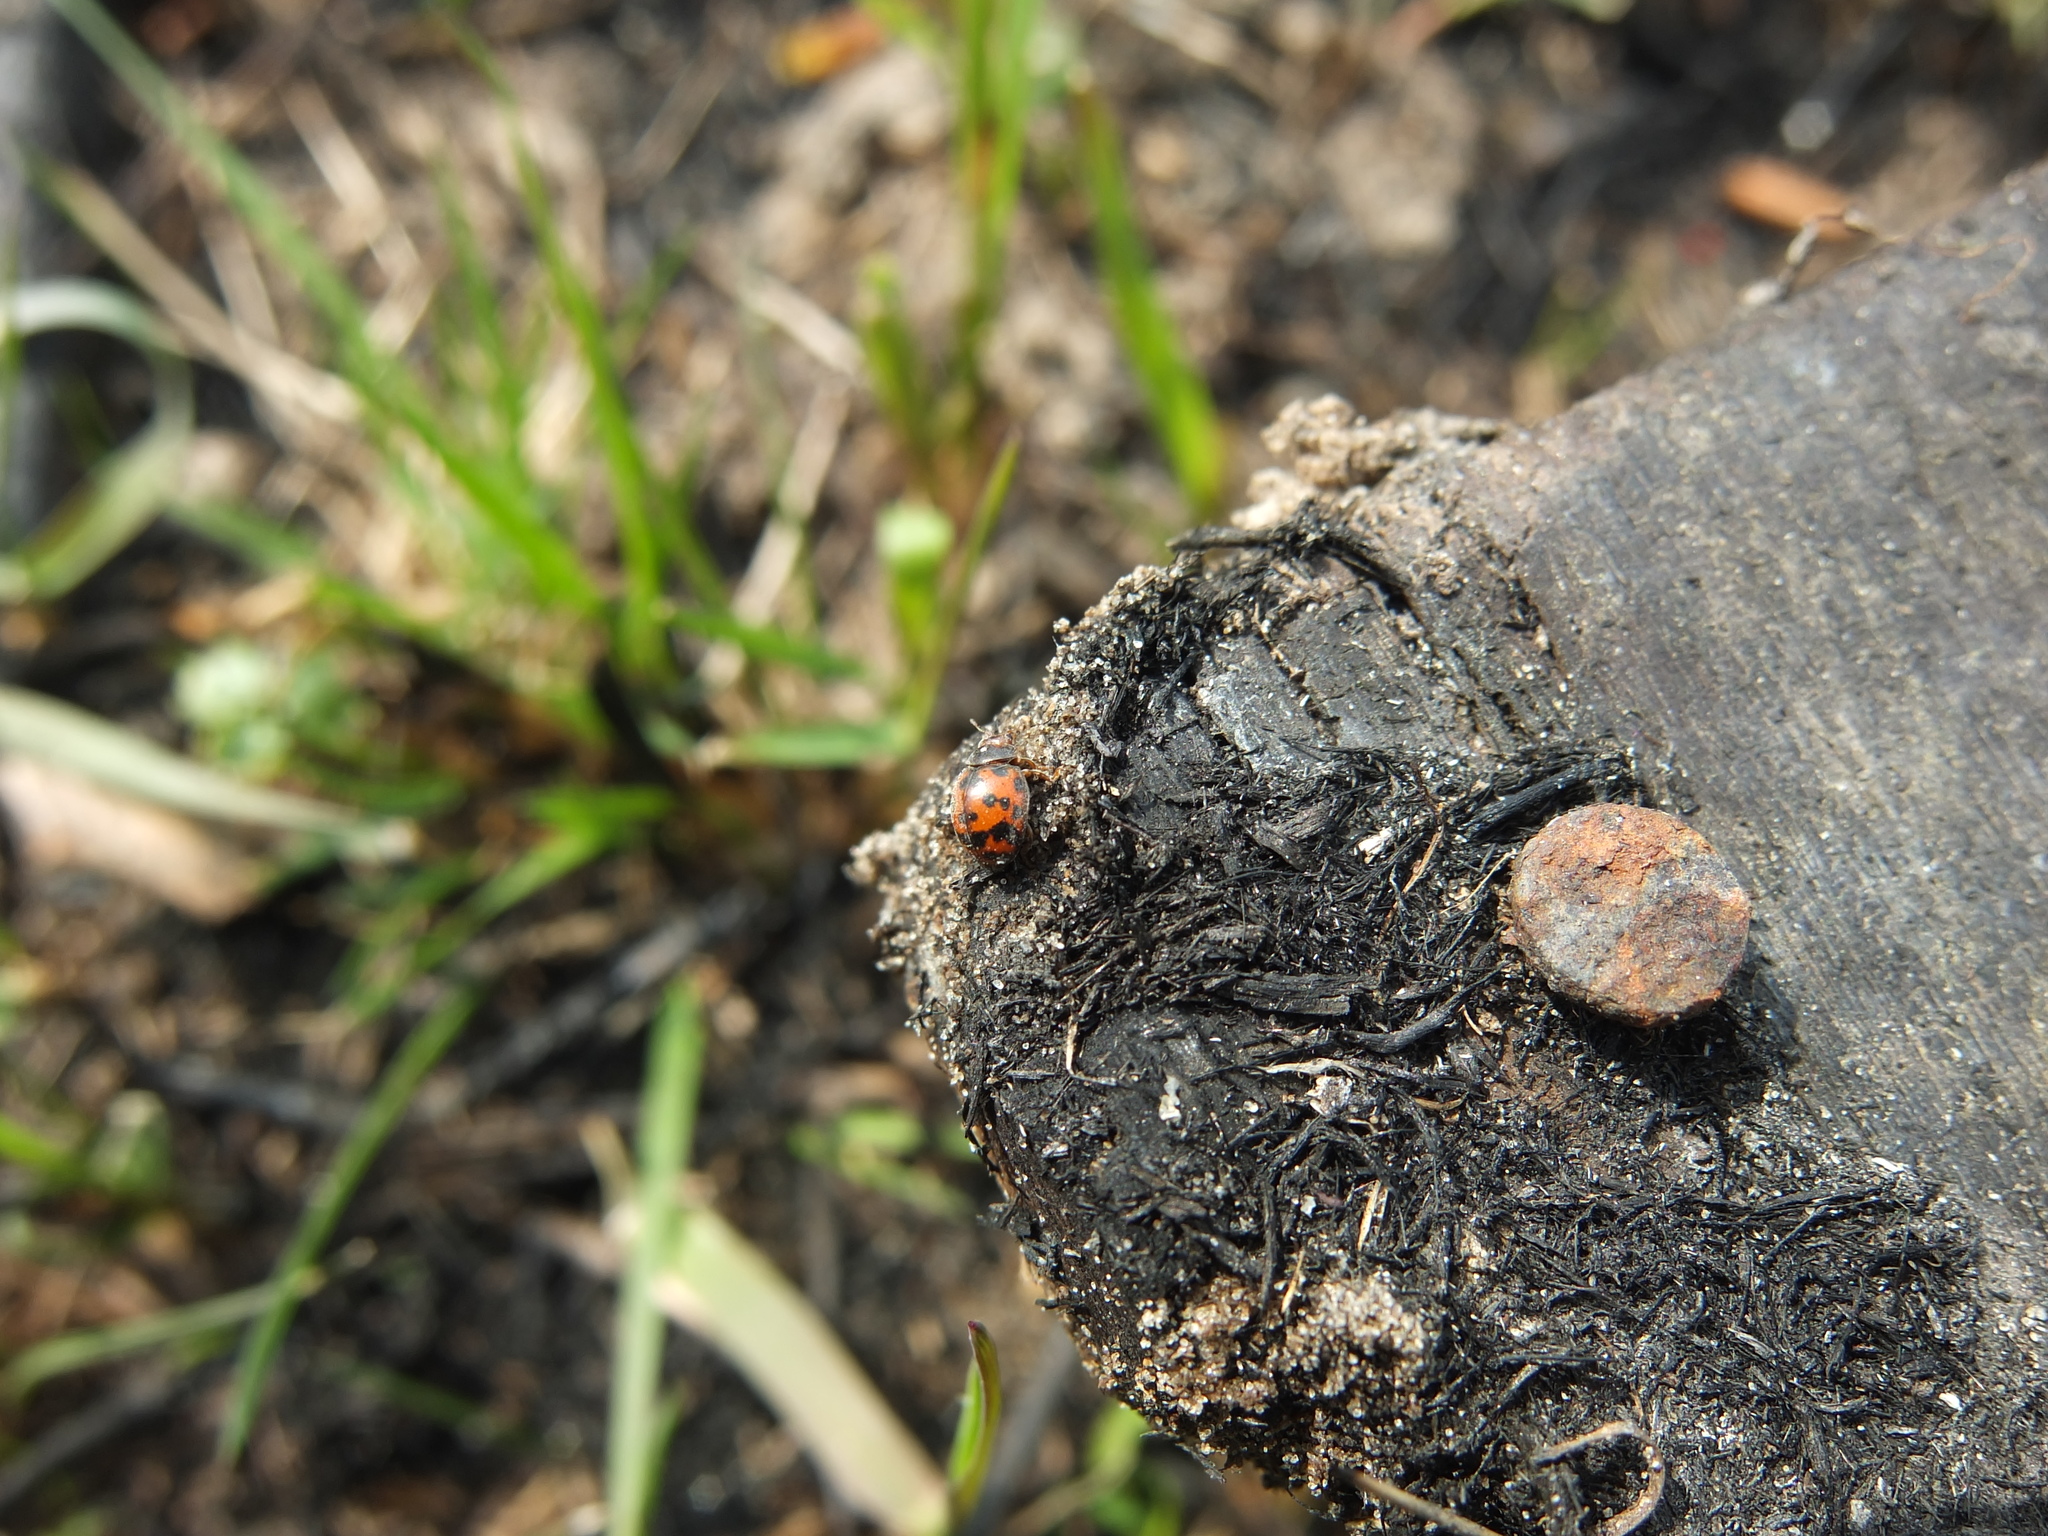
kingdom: Animalia
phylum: Arthropoda
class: Insecta
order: Coleoptera
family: Coccinellidae
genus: Subcoccinella
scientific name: Subcoccinella vigintiquatuorpunctata
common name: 24-spot ladybird
